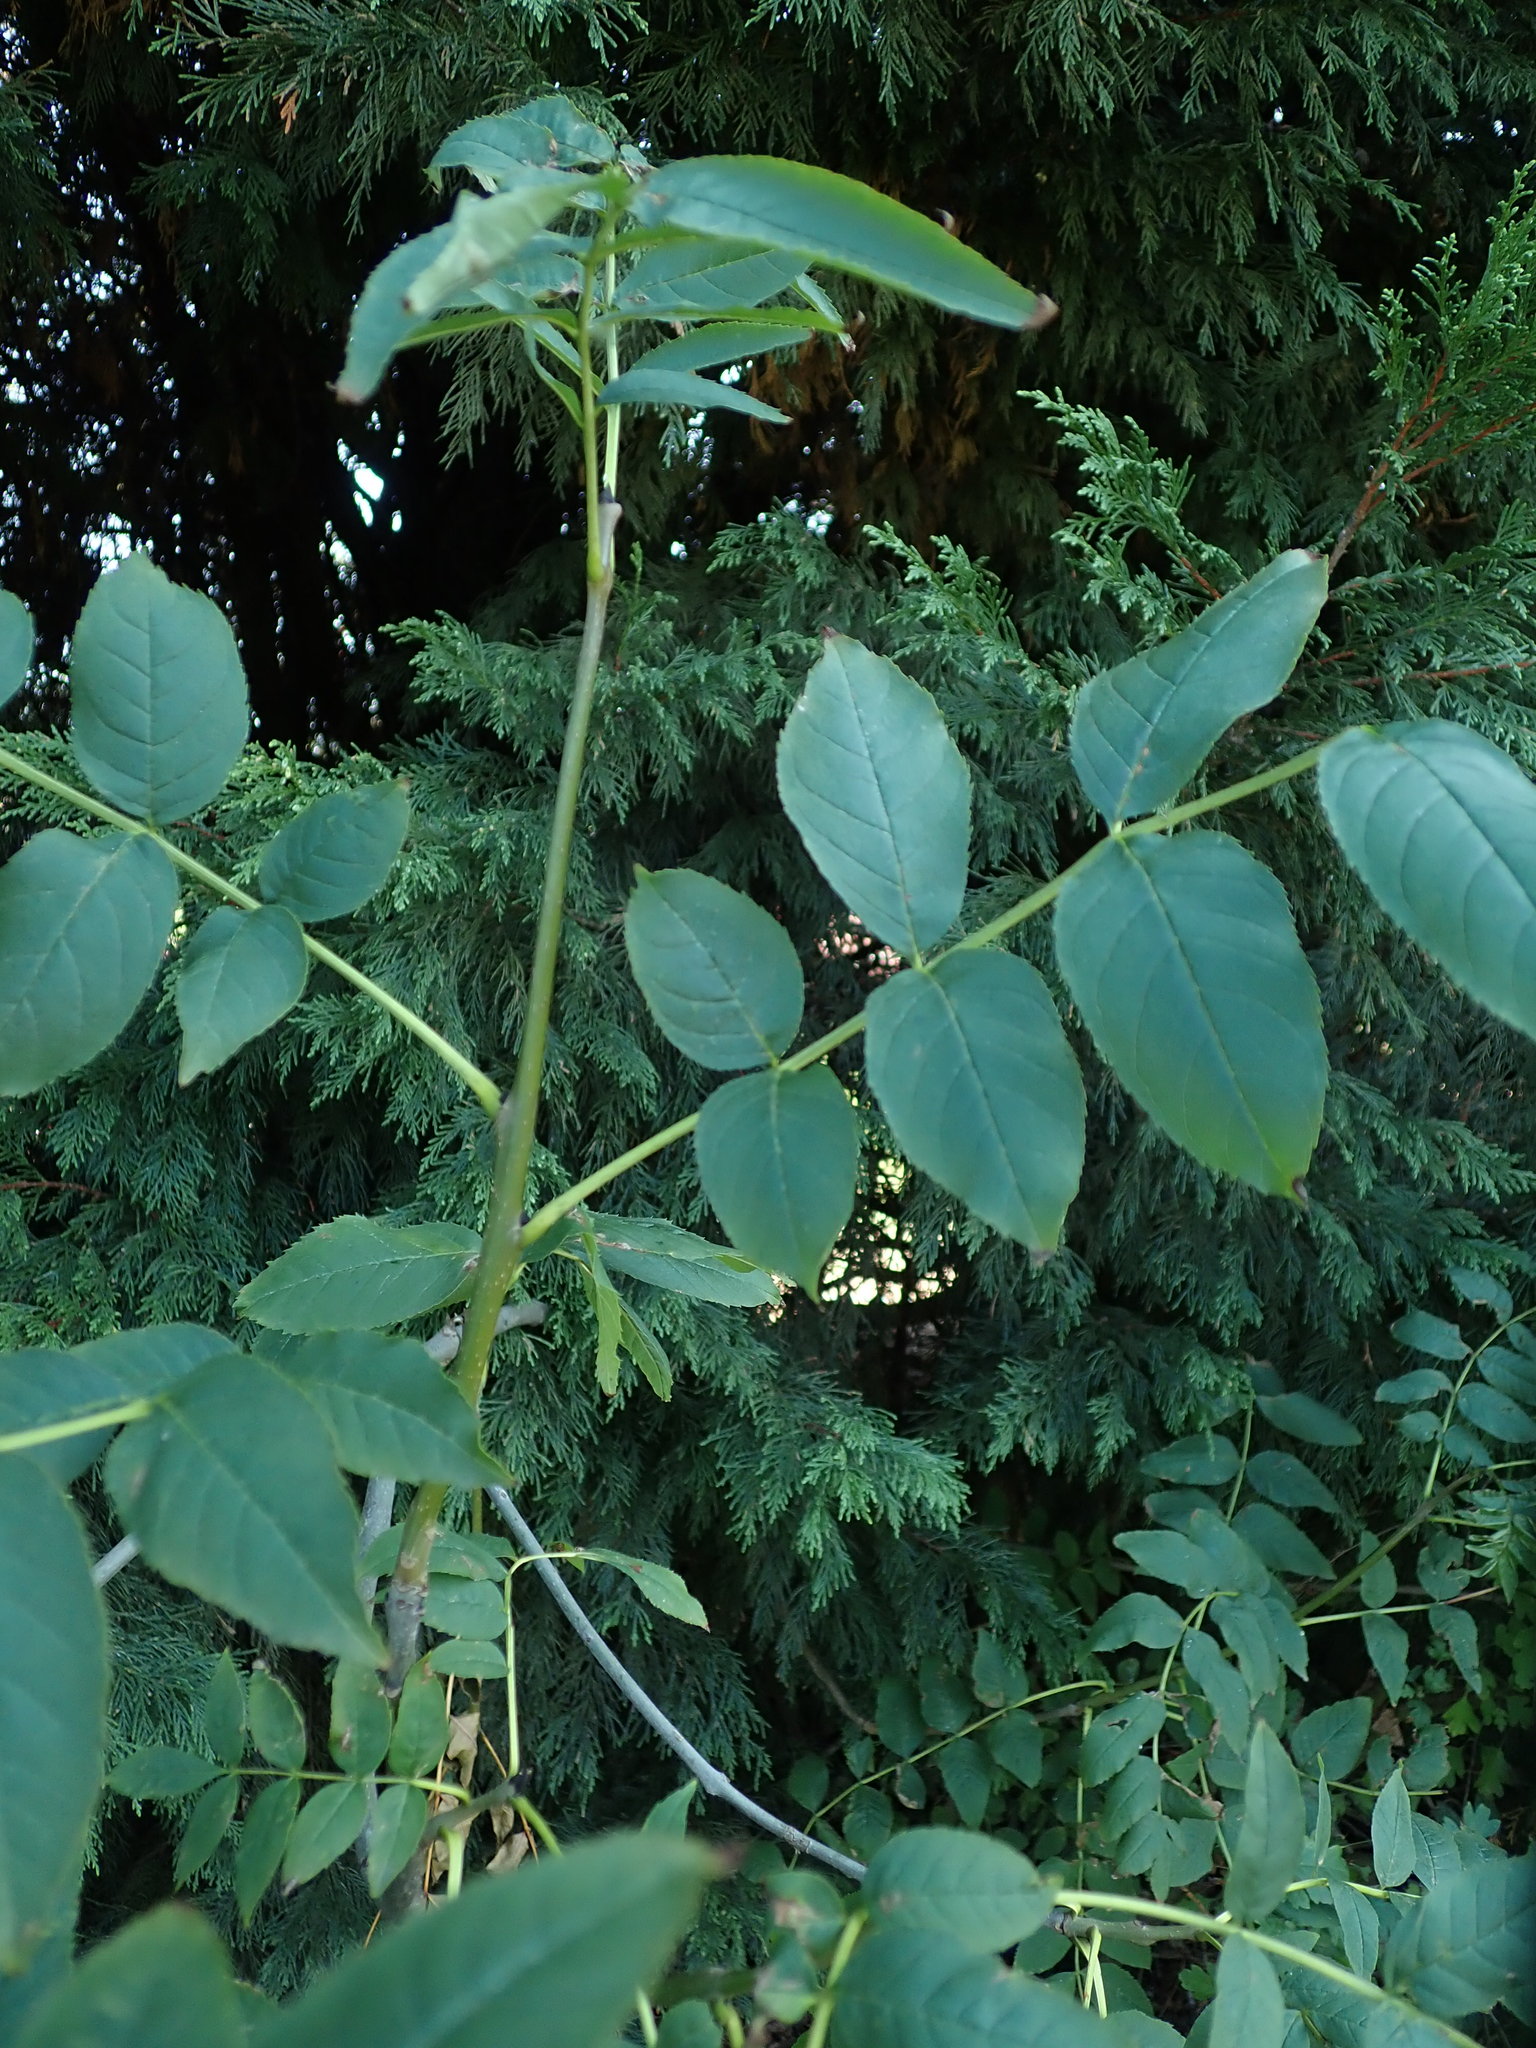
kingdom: Plantae
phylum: Tracheophyta
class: Magnoliopsida
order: Lamiales
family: Oleaceae
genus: Fraxinus
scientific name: Fraxinus excelsior
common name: European ash
